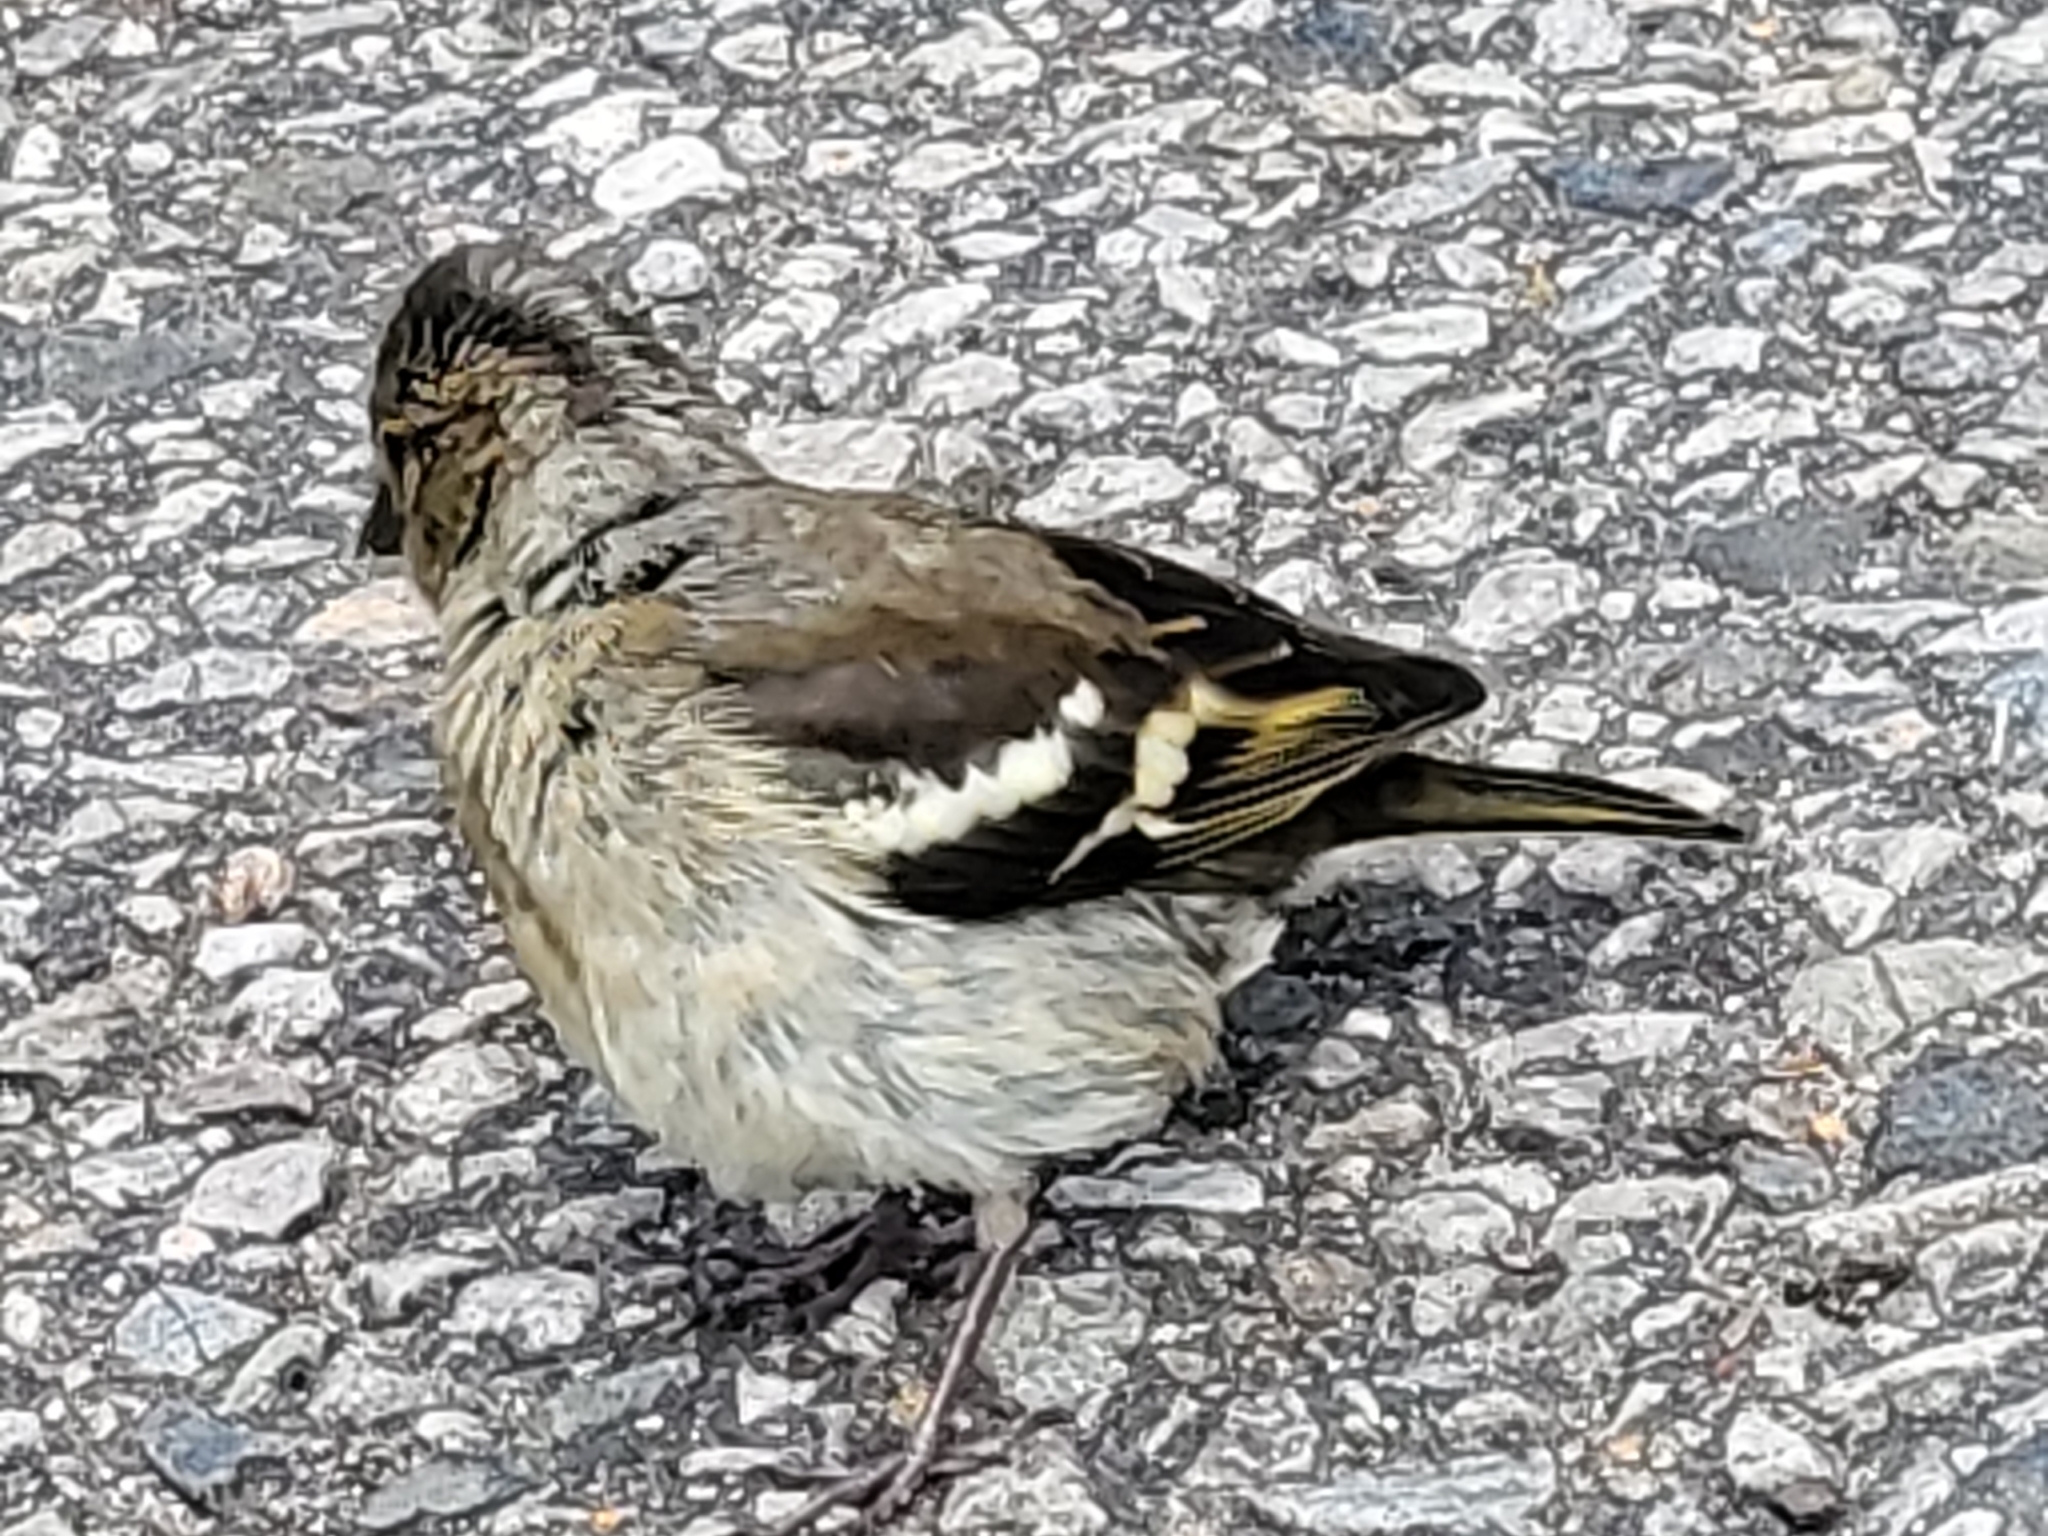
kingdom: Animalia
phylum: Chordata
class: Aves
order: Passeriformes
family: Fringillidae
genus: Fringilla
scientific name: Fringilla coelebs
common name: Common chaffinch
